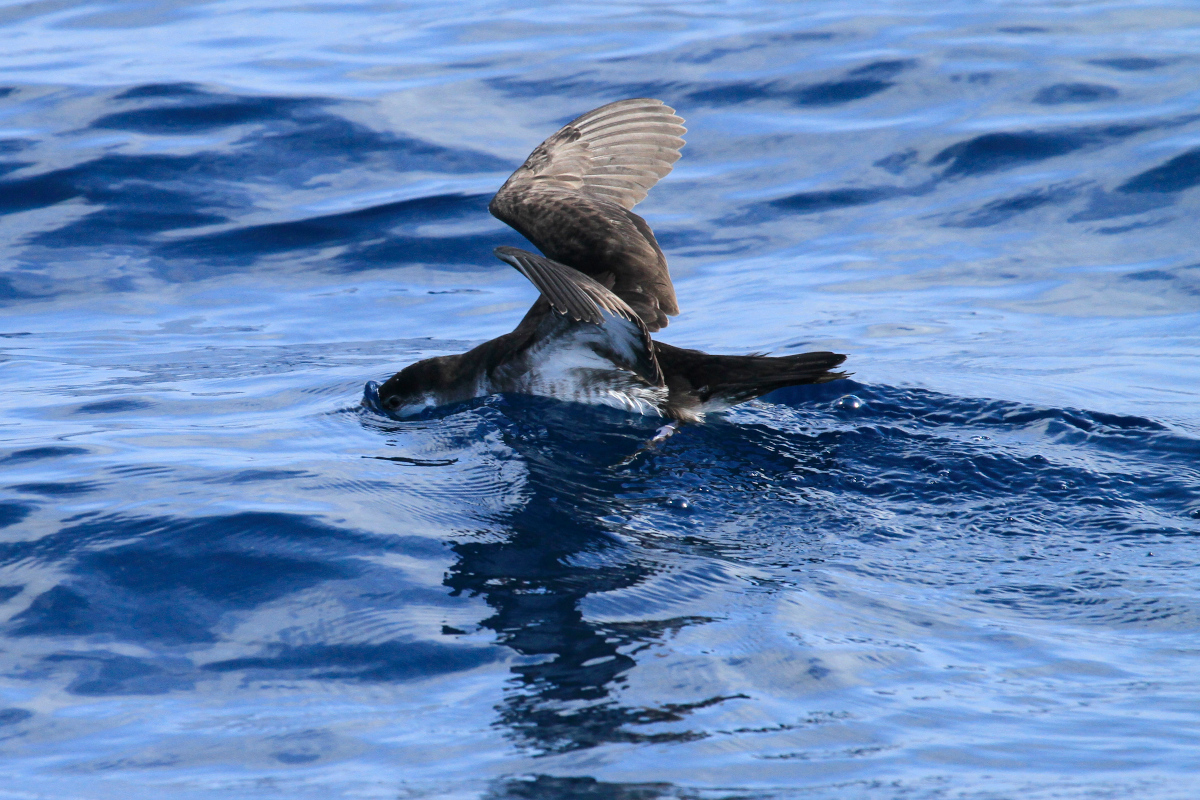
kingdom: Animalia
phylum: Chordata
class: Aves
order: Procellariiformes
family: Procellariidae
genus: Puffinus
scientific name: Puffinus lherminieri
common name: Audubon's shearwater
